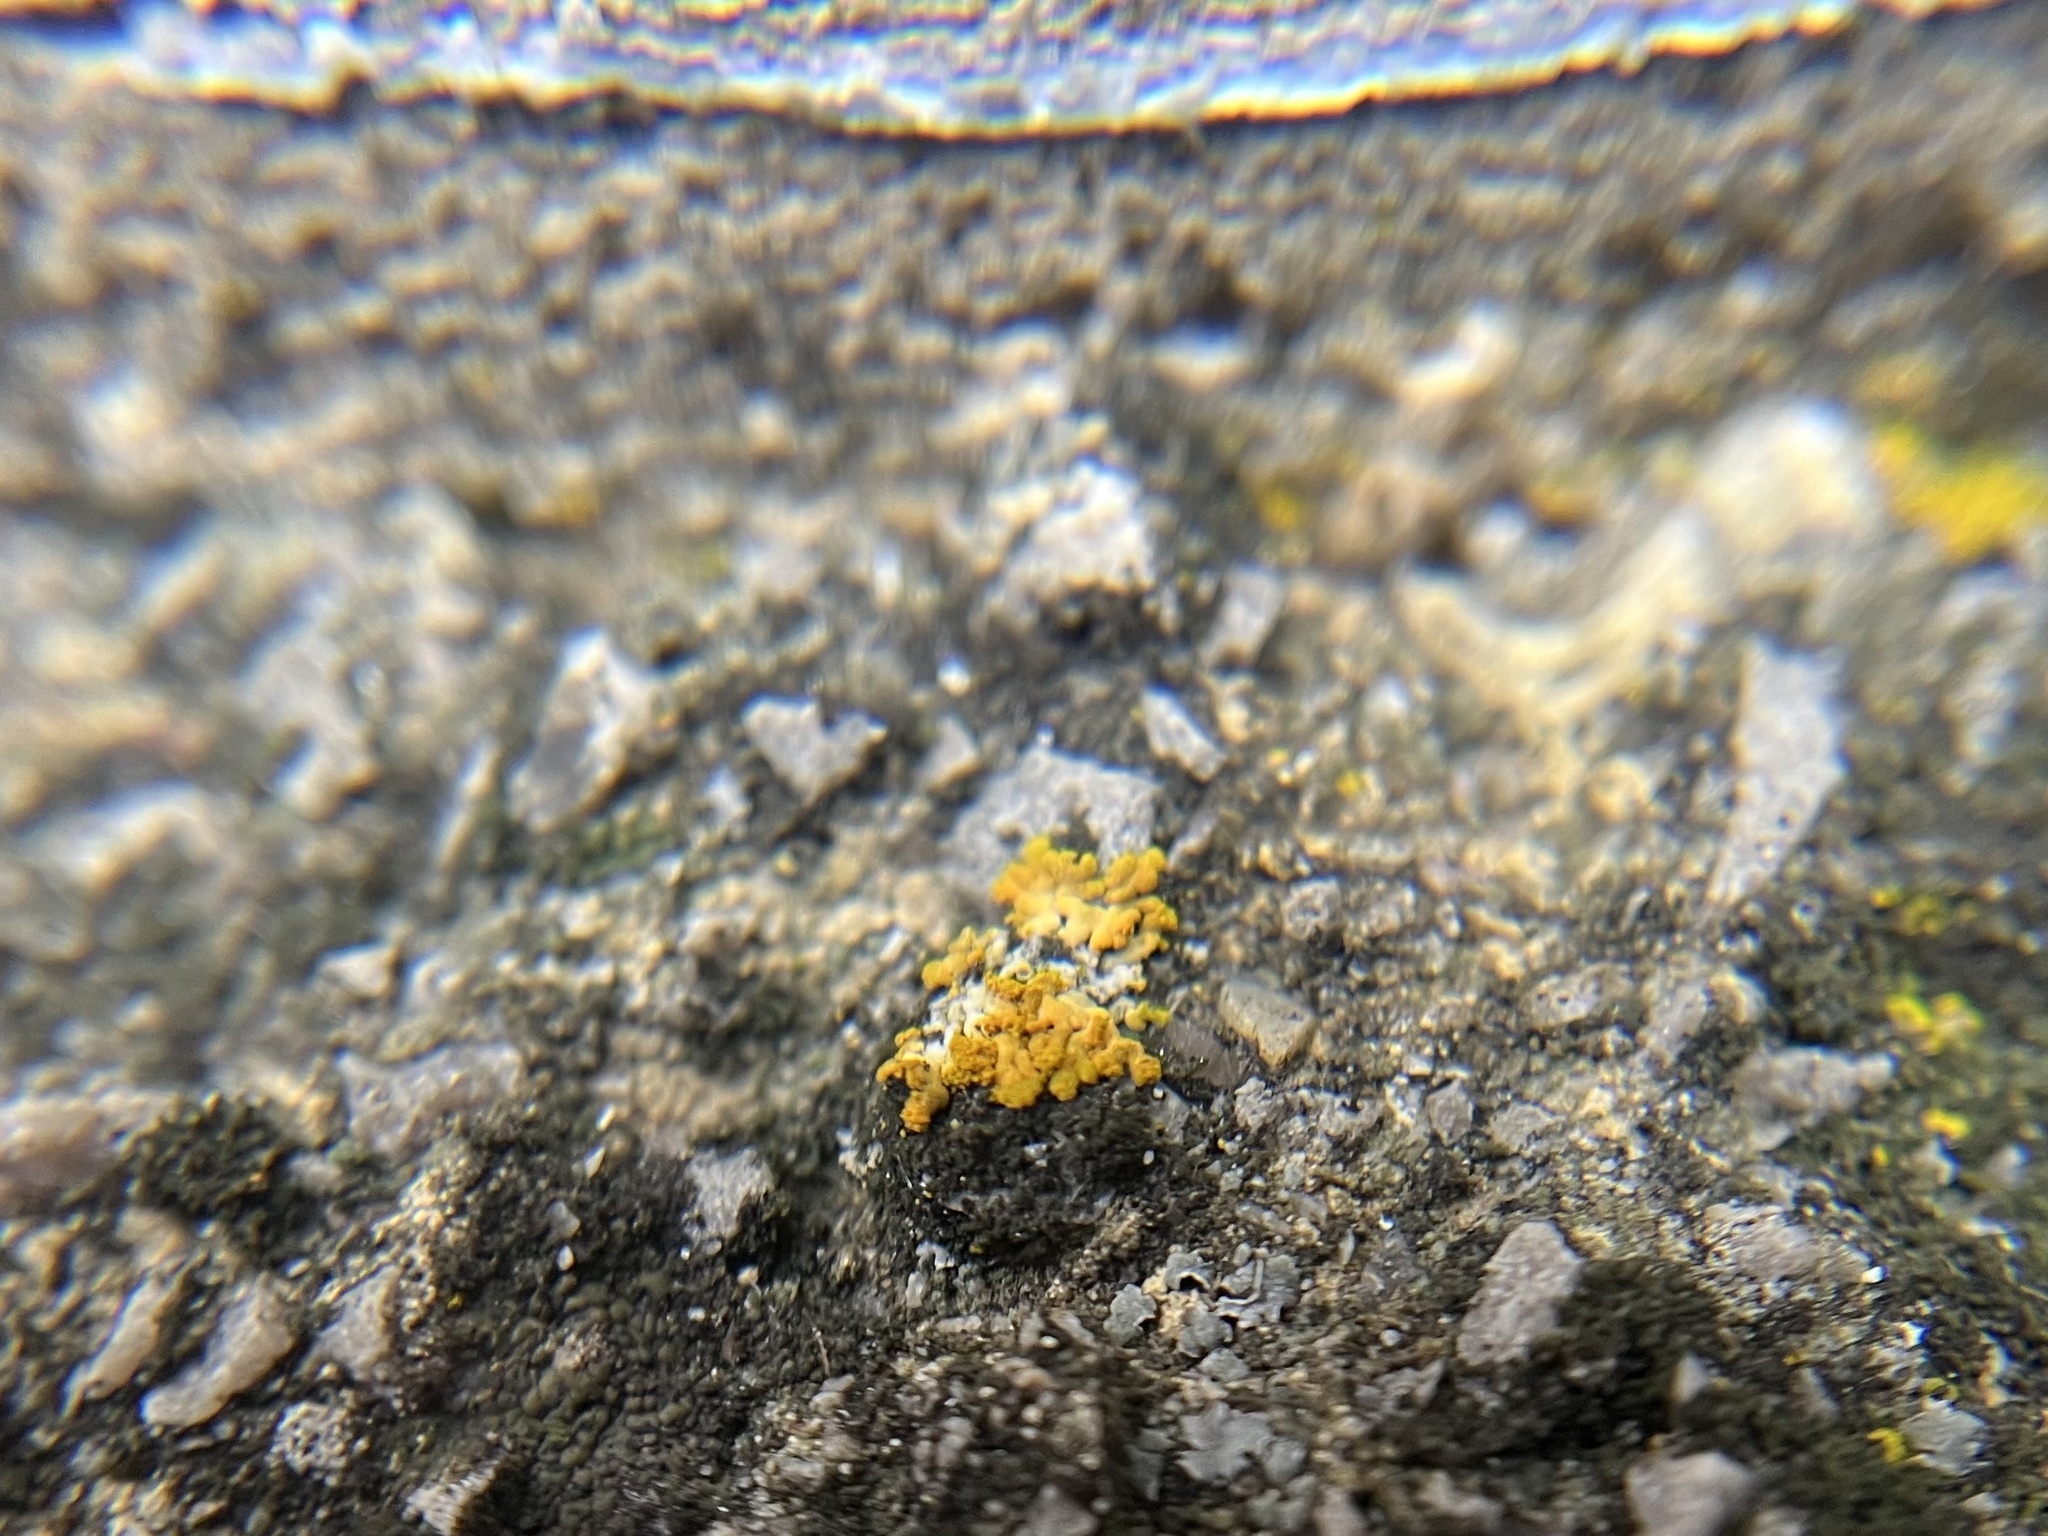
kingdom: Fungi
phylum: Ascomycota
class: Lecanoromycetes
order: Teloschistales
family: Teloschistaceae
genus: Calogaya
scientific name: Calogaya decipiens
